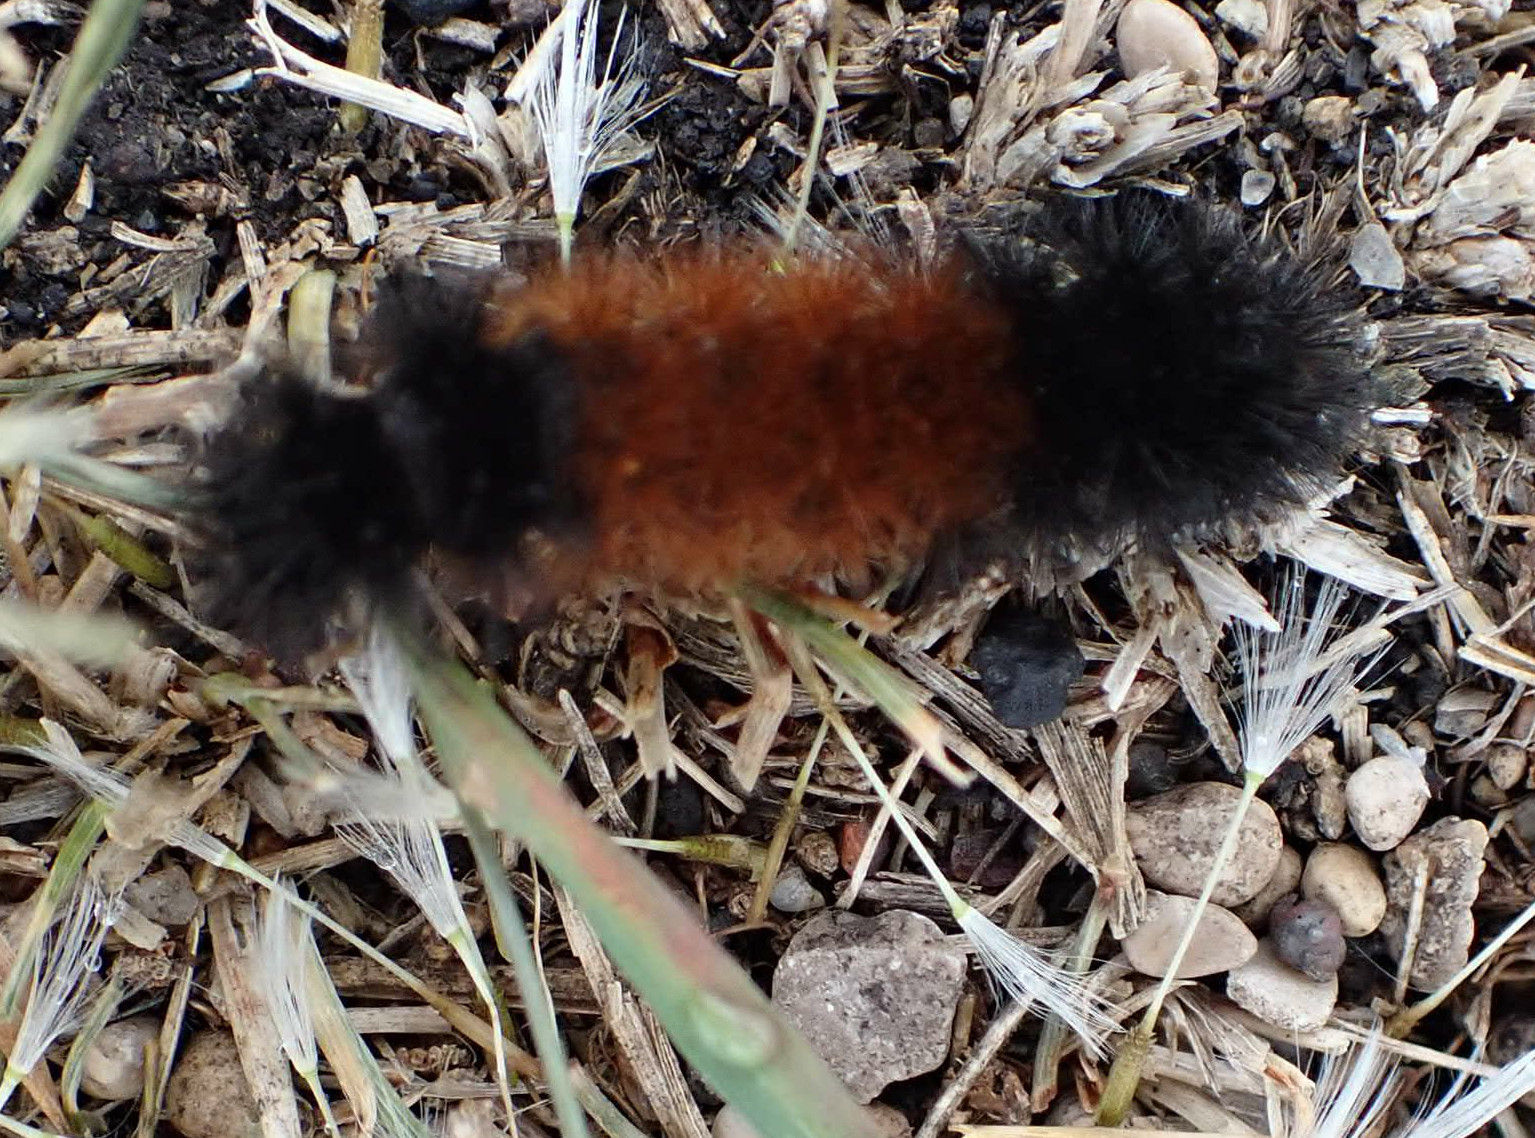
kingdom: Animalia
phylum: Arthropoda
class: Insecta
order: Lepidoptera
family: Erebidae
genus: Pyrrharctia
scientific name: Pyrrharctia isabella
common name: Isabella tiger moth
